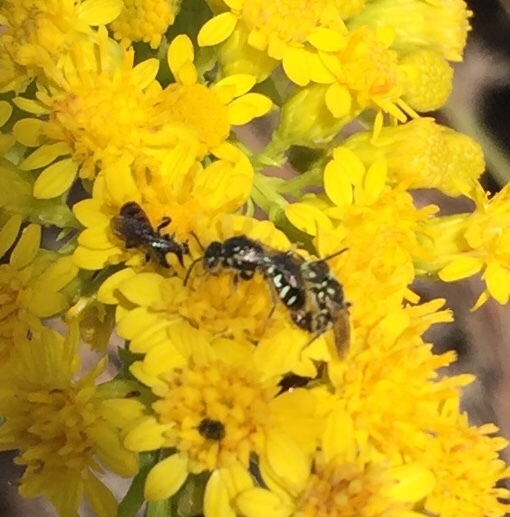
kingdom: Animalia
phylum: Arthropoda
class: Insecta
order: Hymenoptera
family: Andrenidae
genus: Perdita
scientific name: Perdita octomaculata
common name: Eight-spotted miner bee
